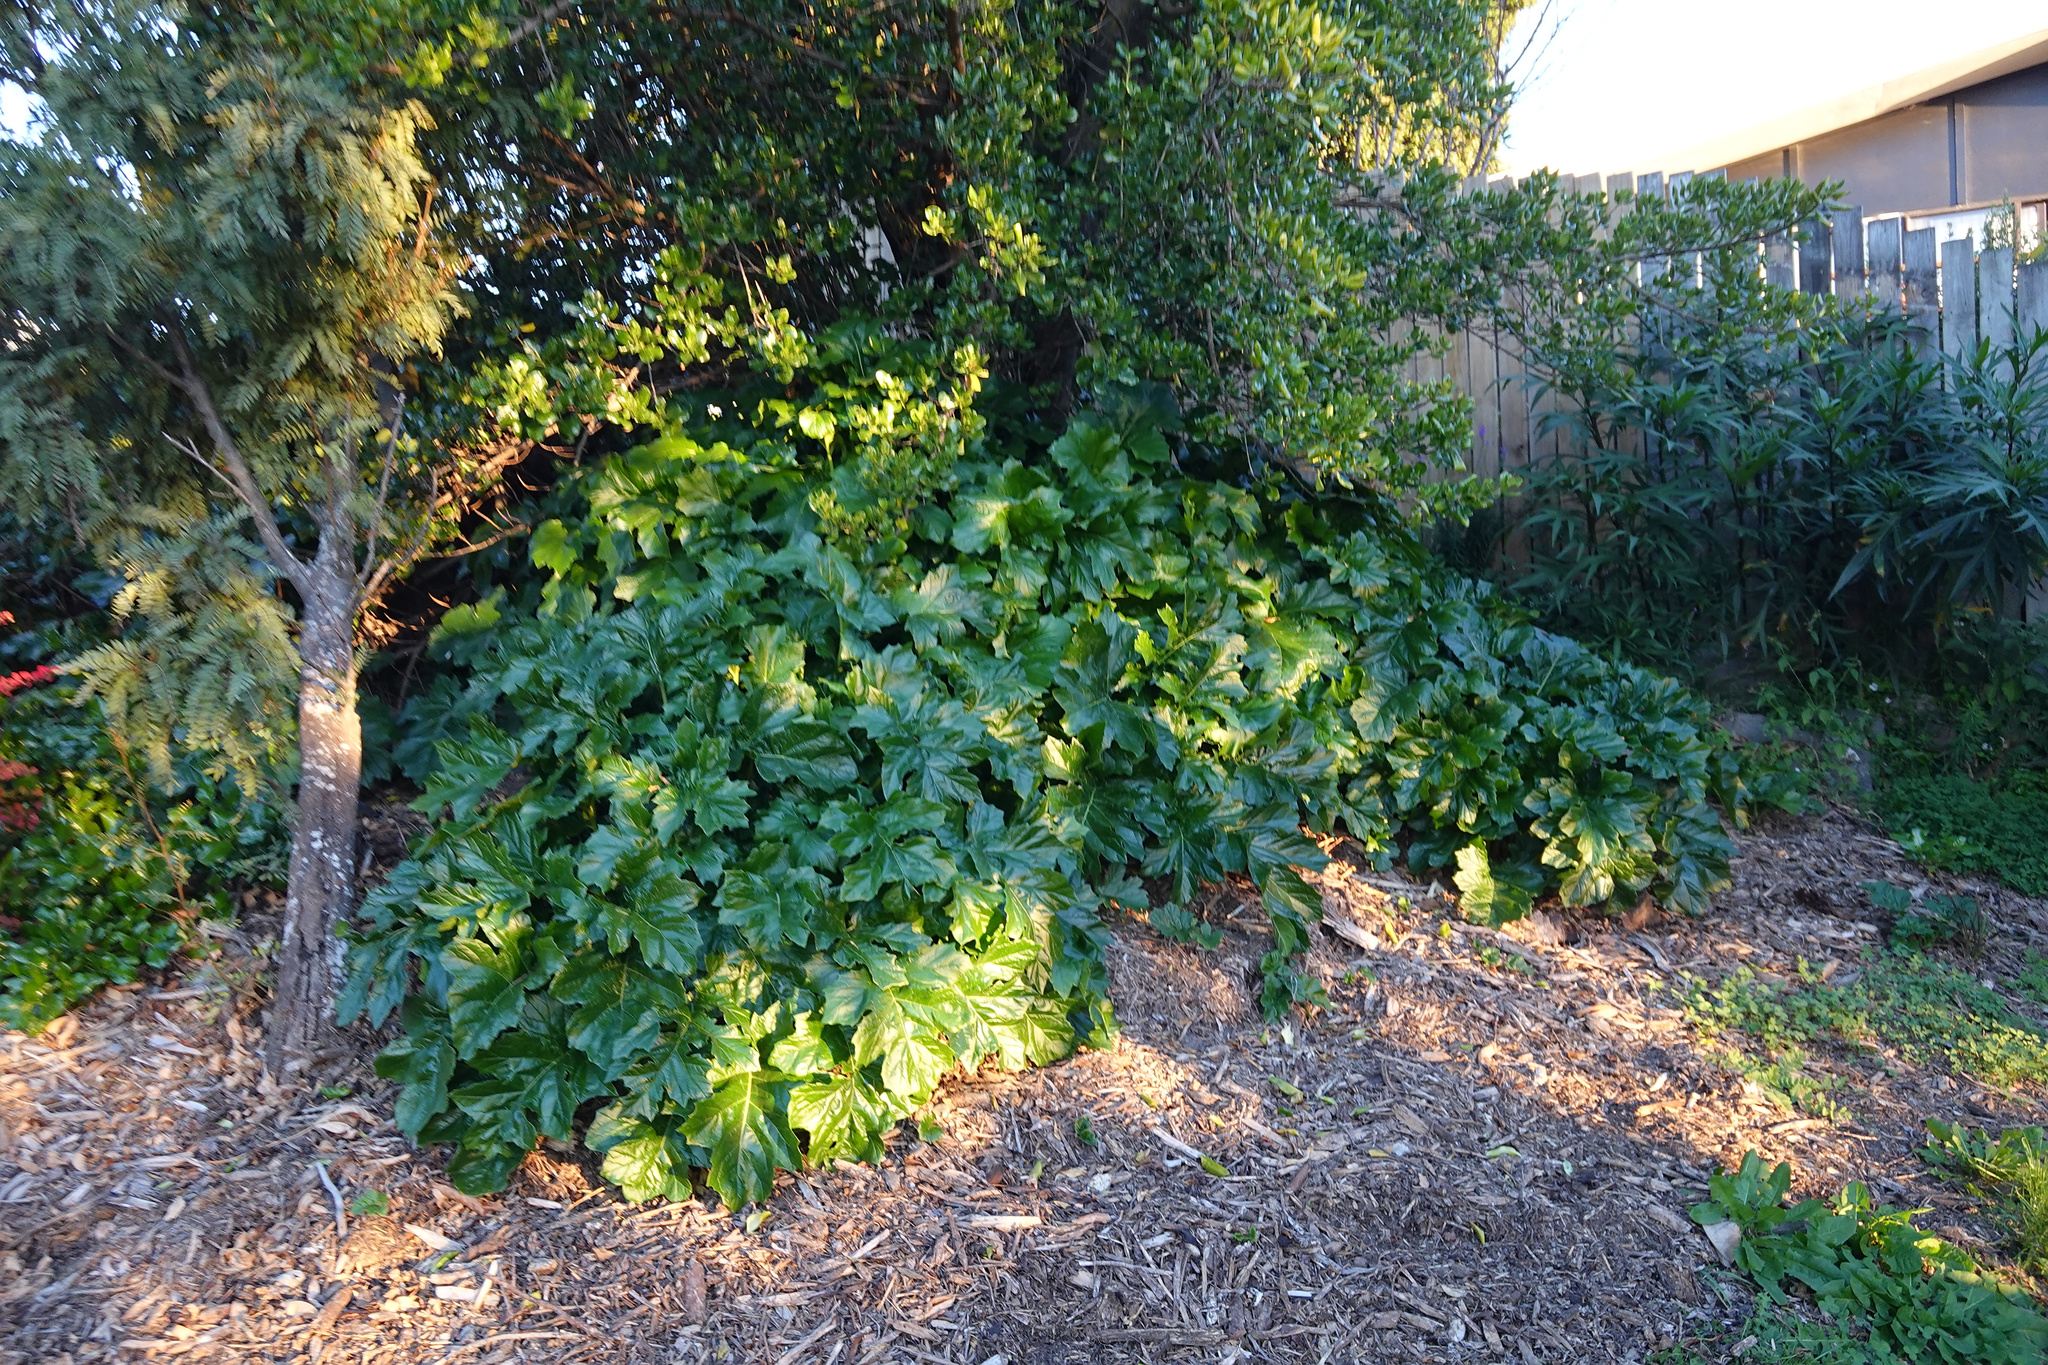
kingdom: Plantae
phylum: Tracheophyta
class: Magnoliopsida
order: Lamiales
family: Acanthaceae
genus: Acanthus
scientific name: Acanthus mollis
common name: Bear's-breech
